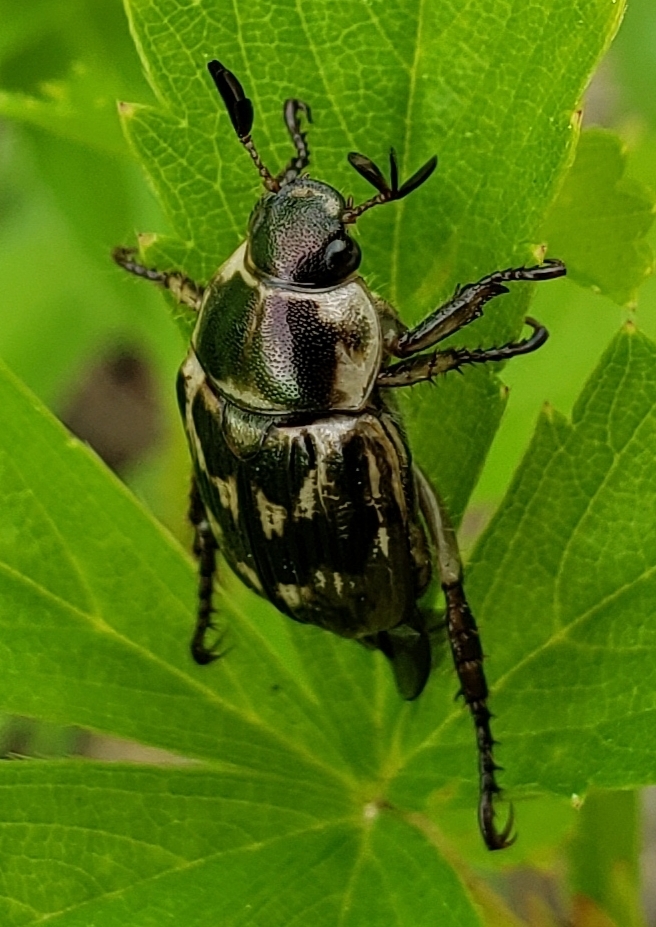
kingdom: Animalia
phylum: Arthropoda
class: Insecta
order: Coleoptera
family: Scarabaeidae
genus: Exomala
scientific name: Exomala orientalis
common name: Oriental beetle
